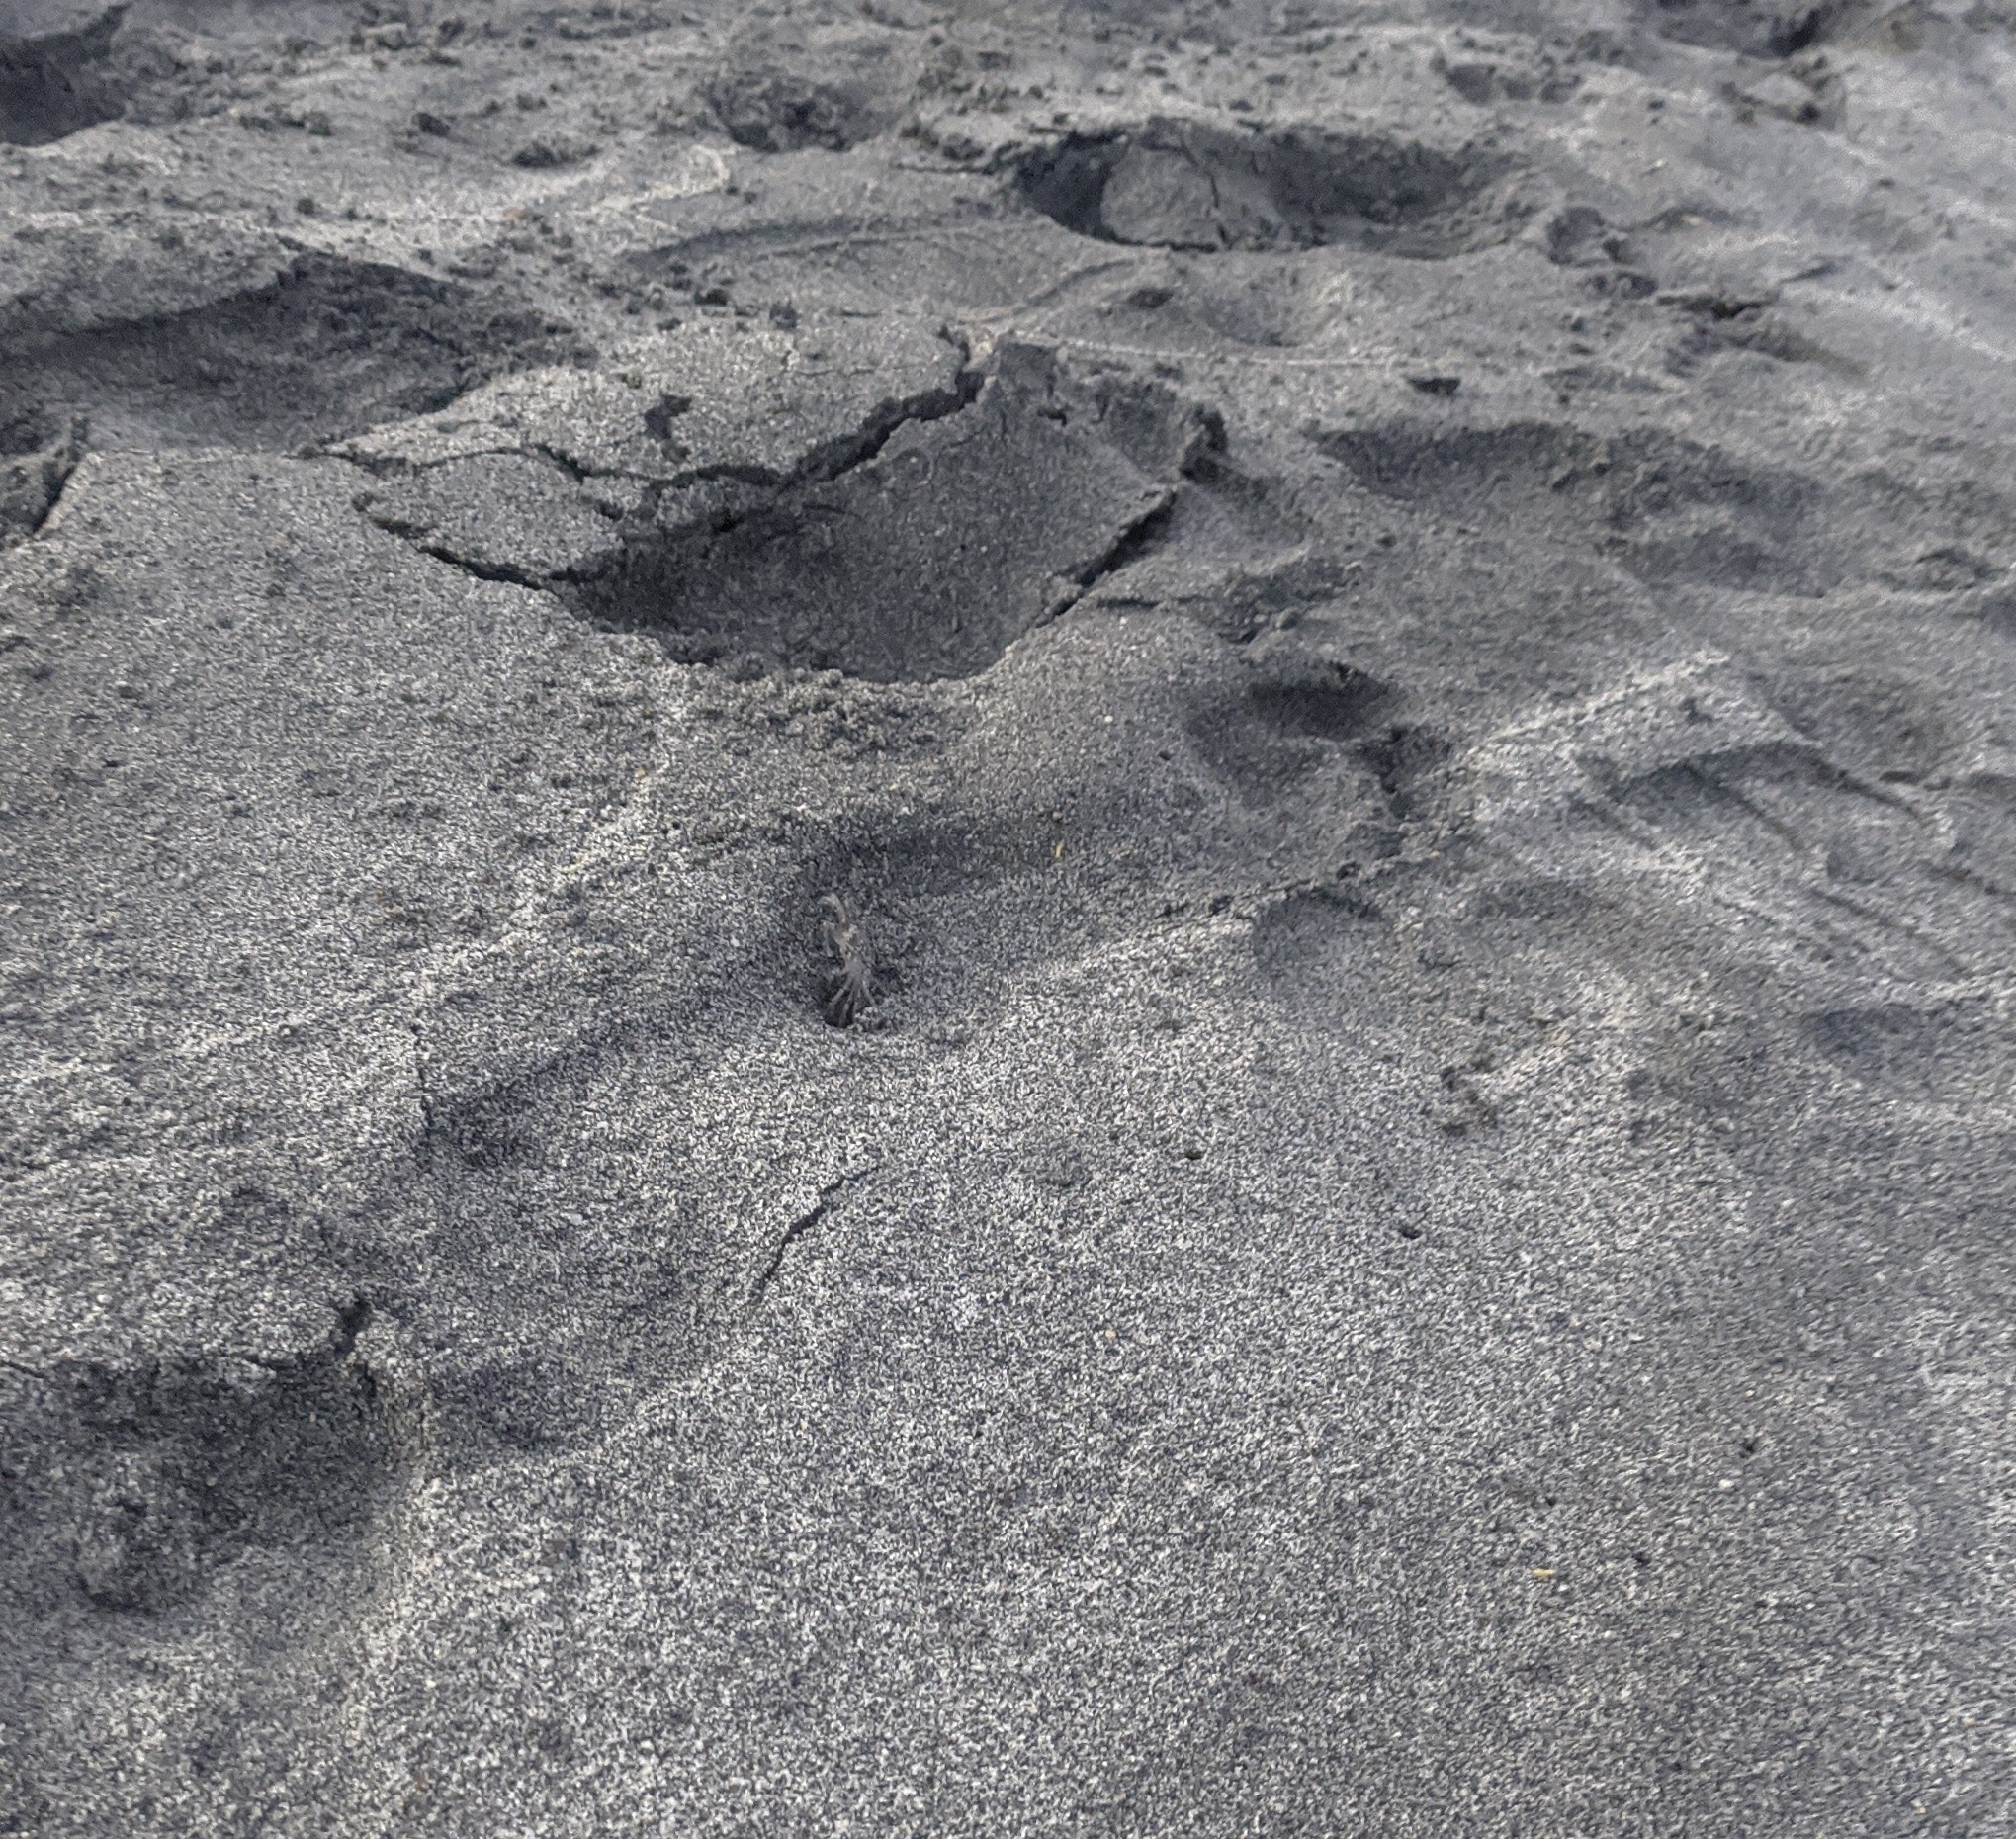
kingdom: Animalia
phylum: Arthropoda
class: Malacostraca
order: Decapoda
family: Ocypodidae
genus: Ocypode
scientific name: Ocypode quadrata
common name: Ghost crab
